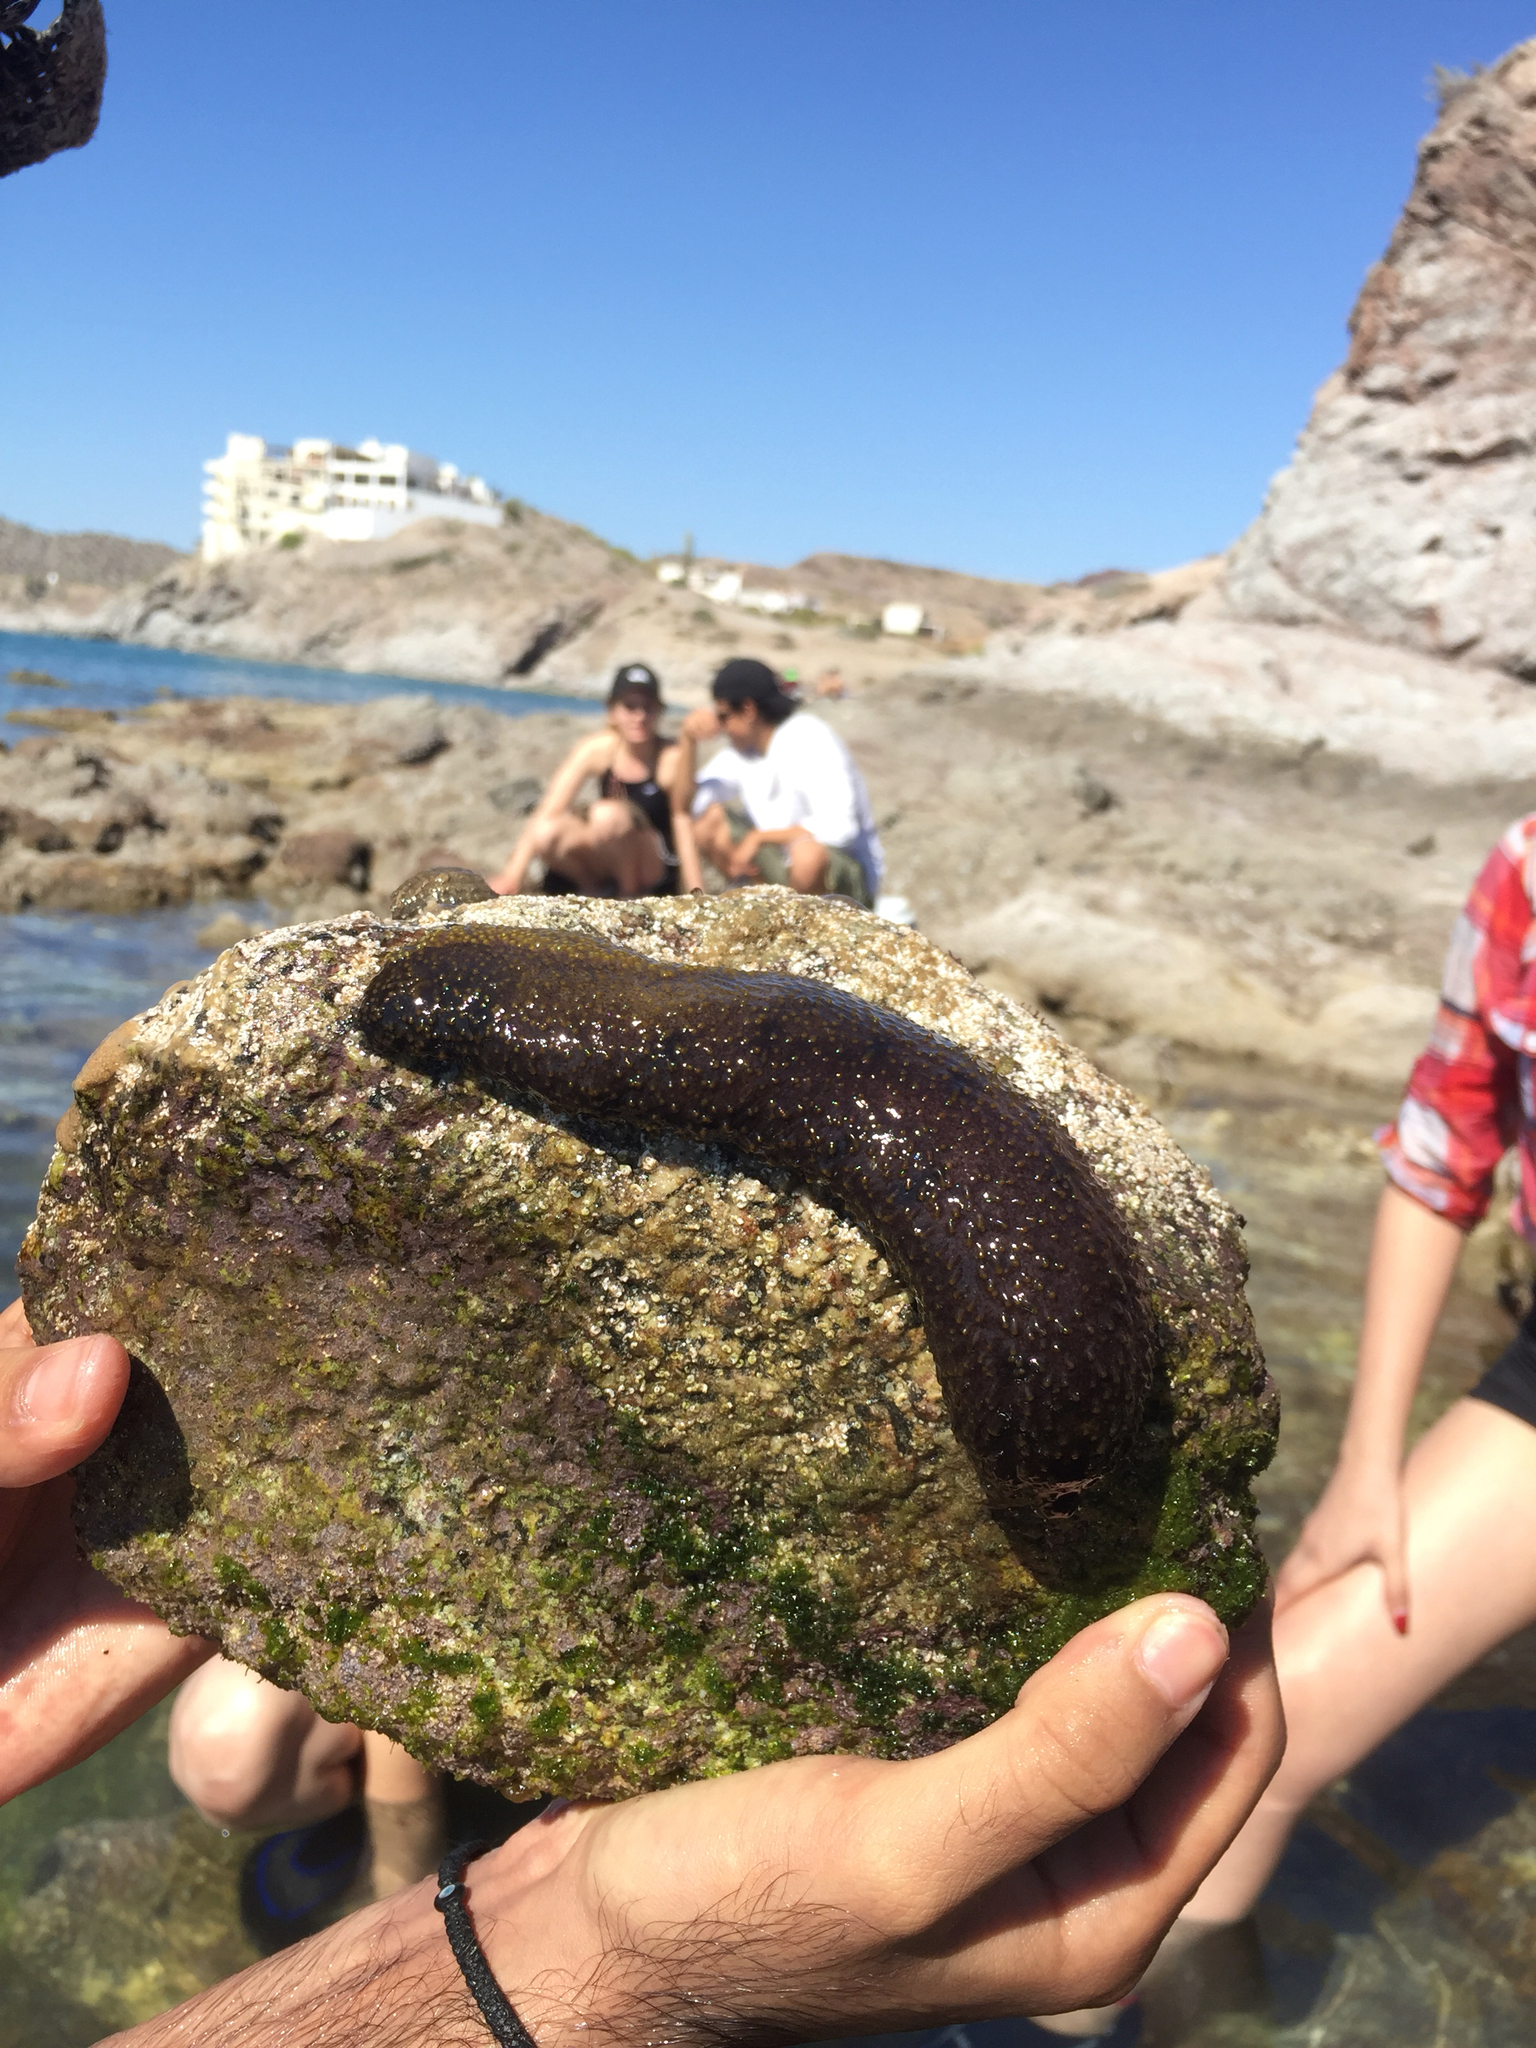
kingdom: Animalia
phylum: Echinodermata
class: Holothuroidea
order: Holothuriida
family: Holothuriidae
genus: Holothuria
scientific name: Holothuria lubrica
